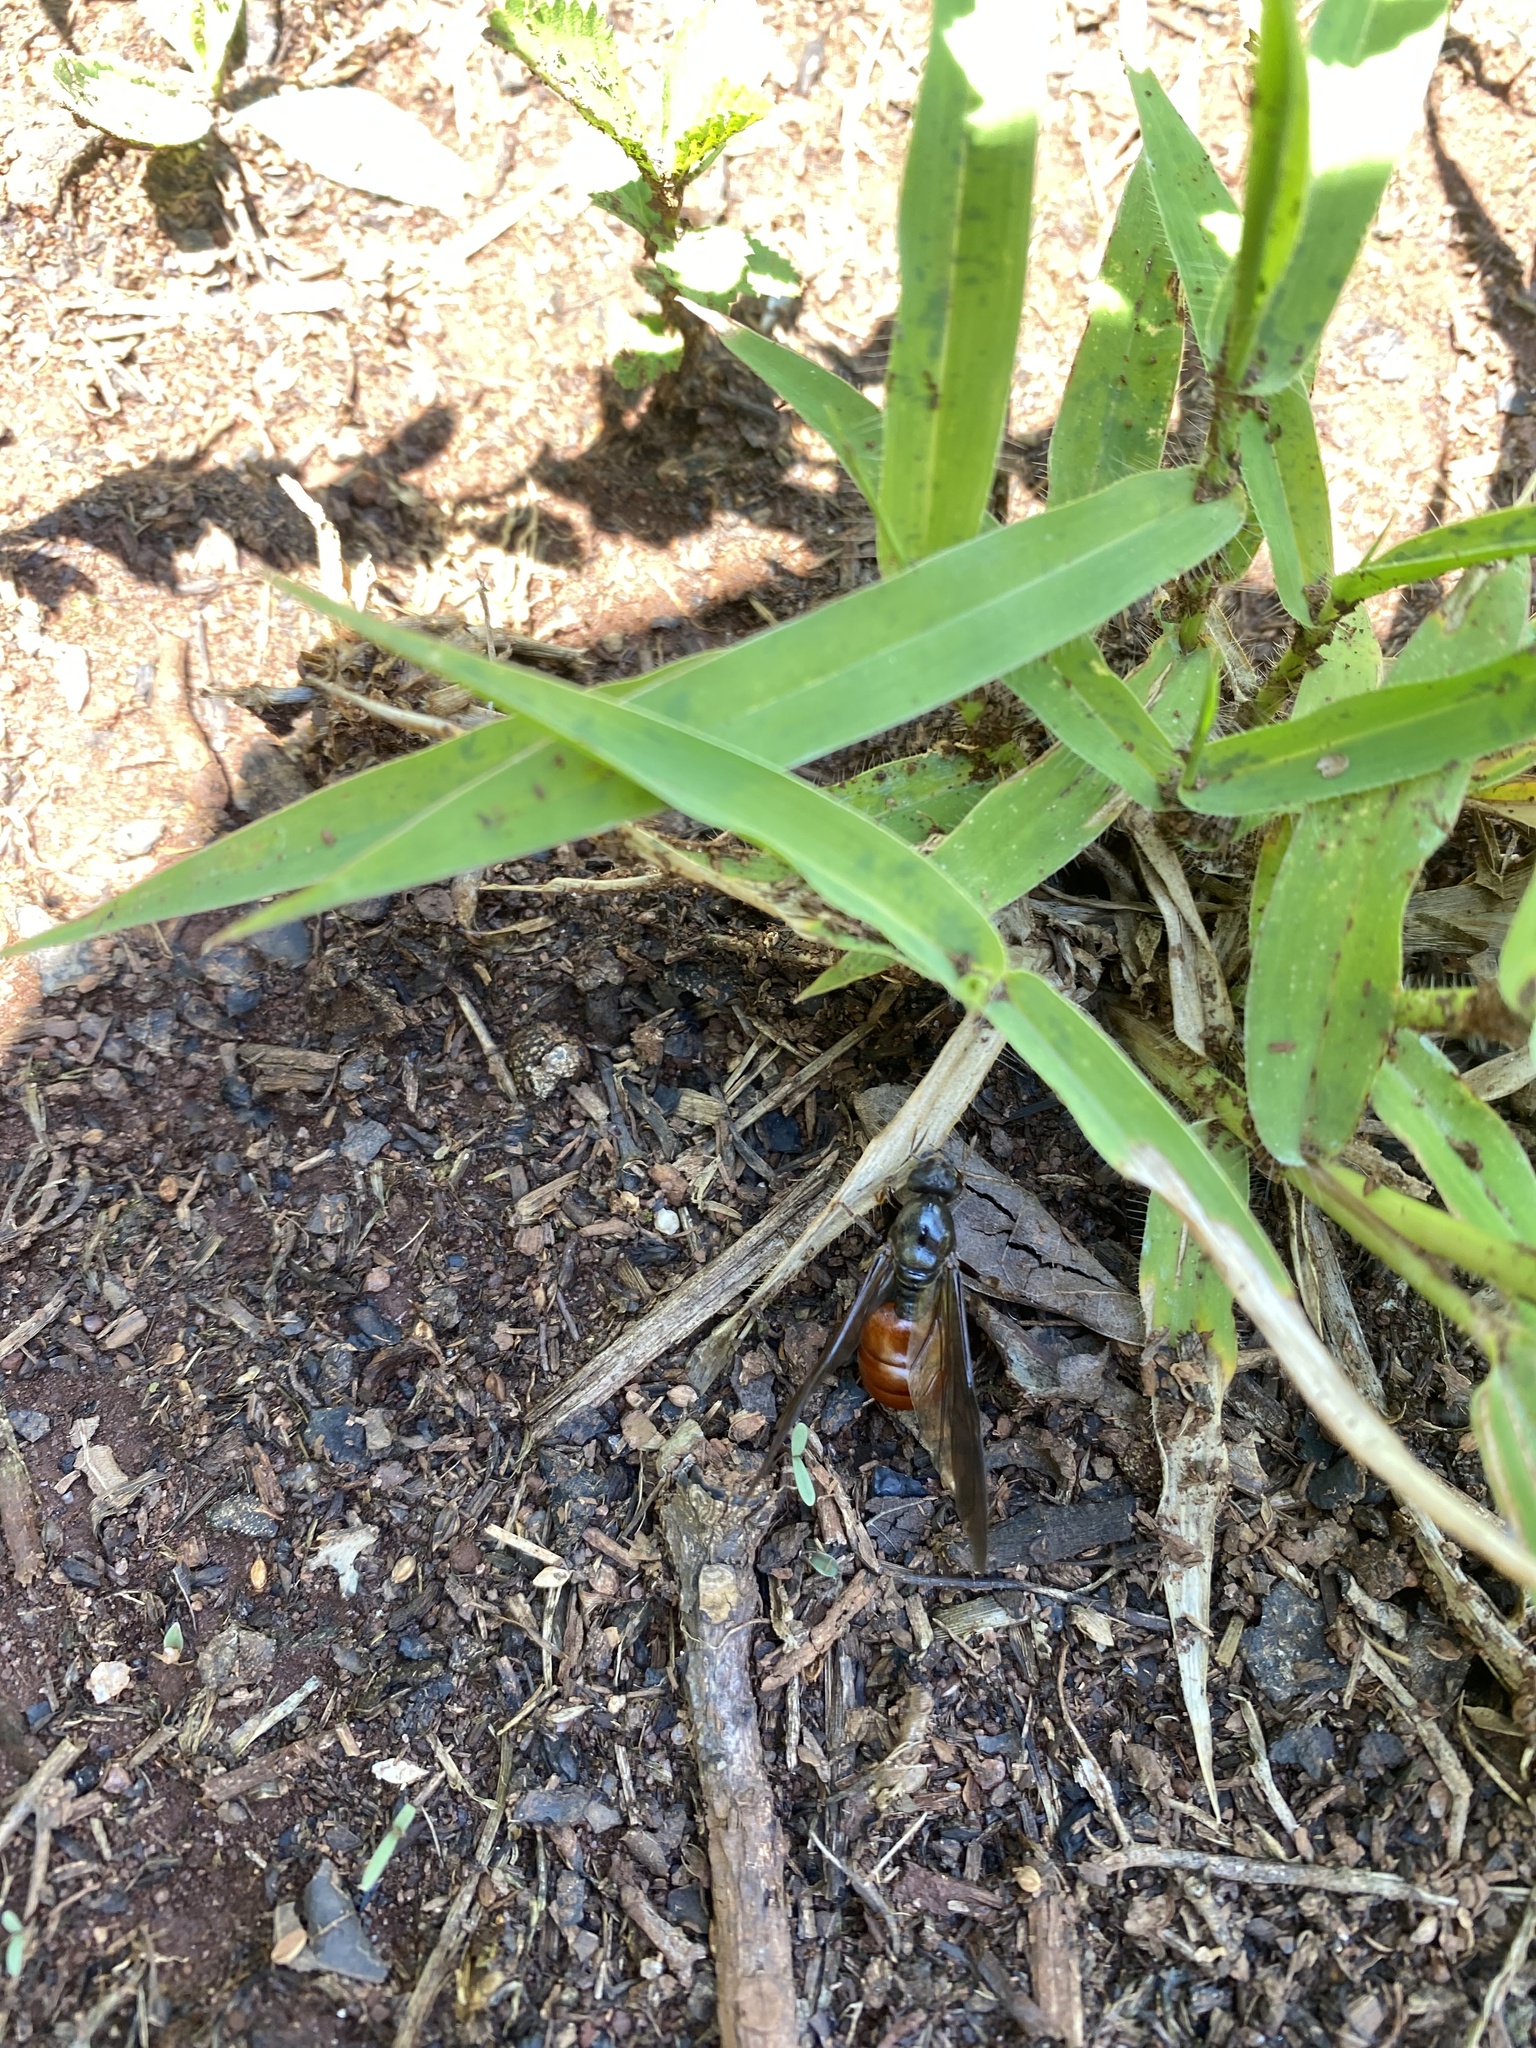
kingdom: Animalia
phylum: Arthropoda
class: Insecta
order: Hymenoptera
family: Formicidae
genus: Carebara
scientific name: Carebara vidua
